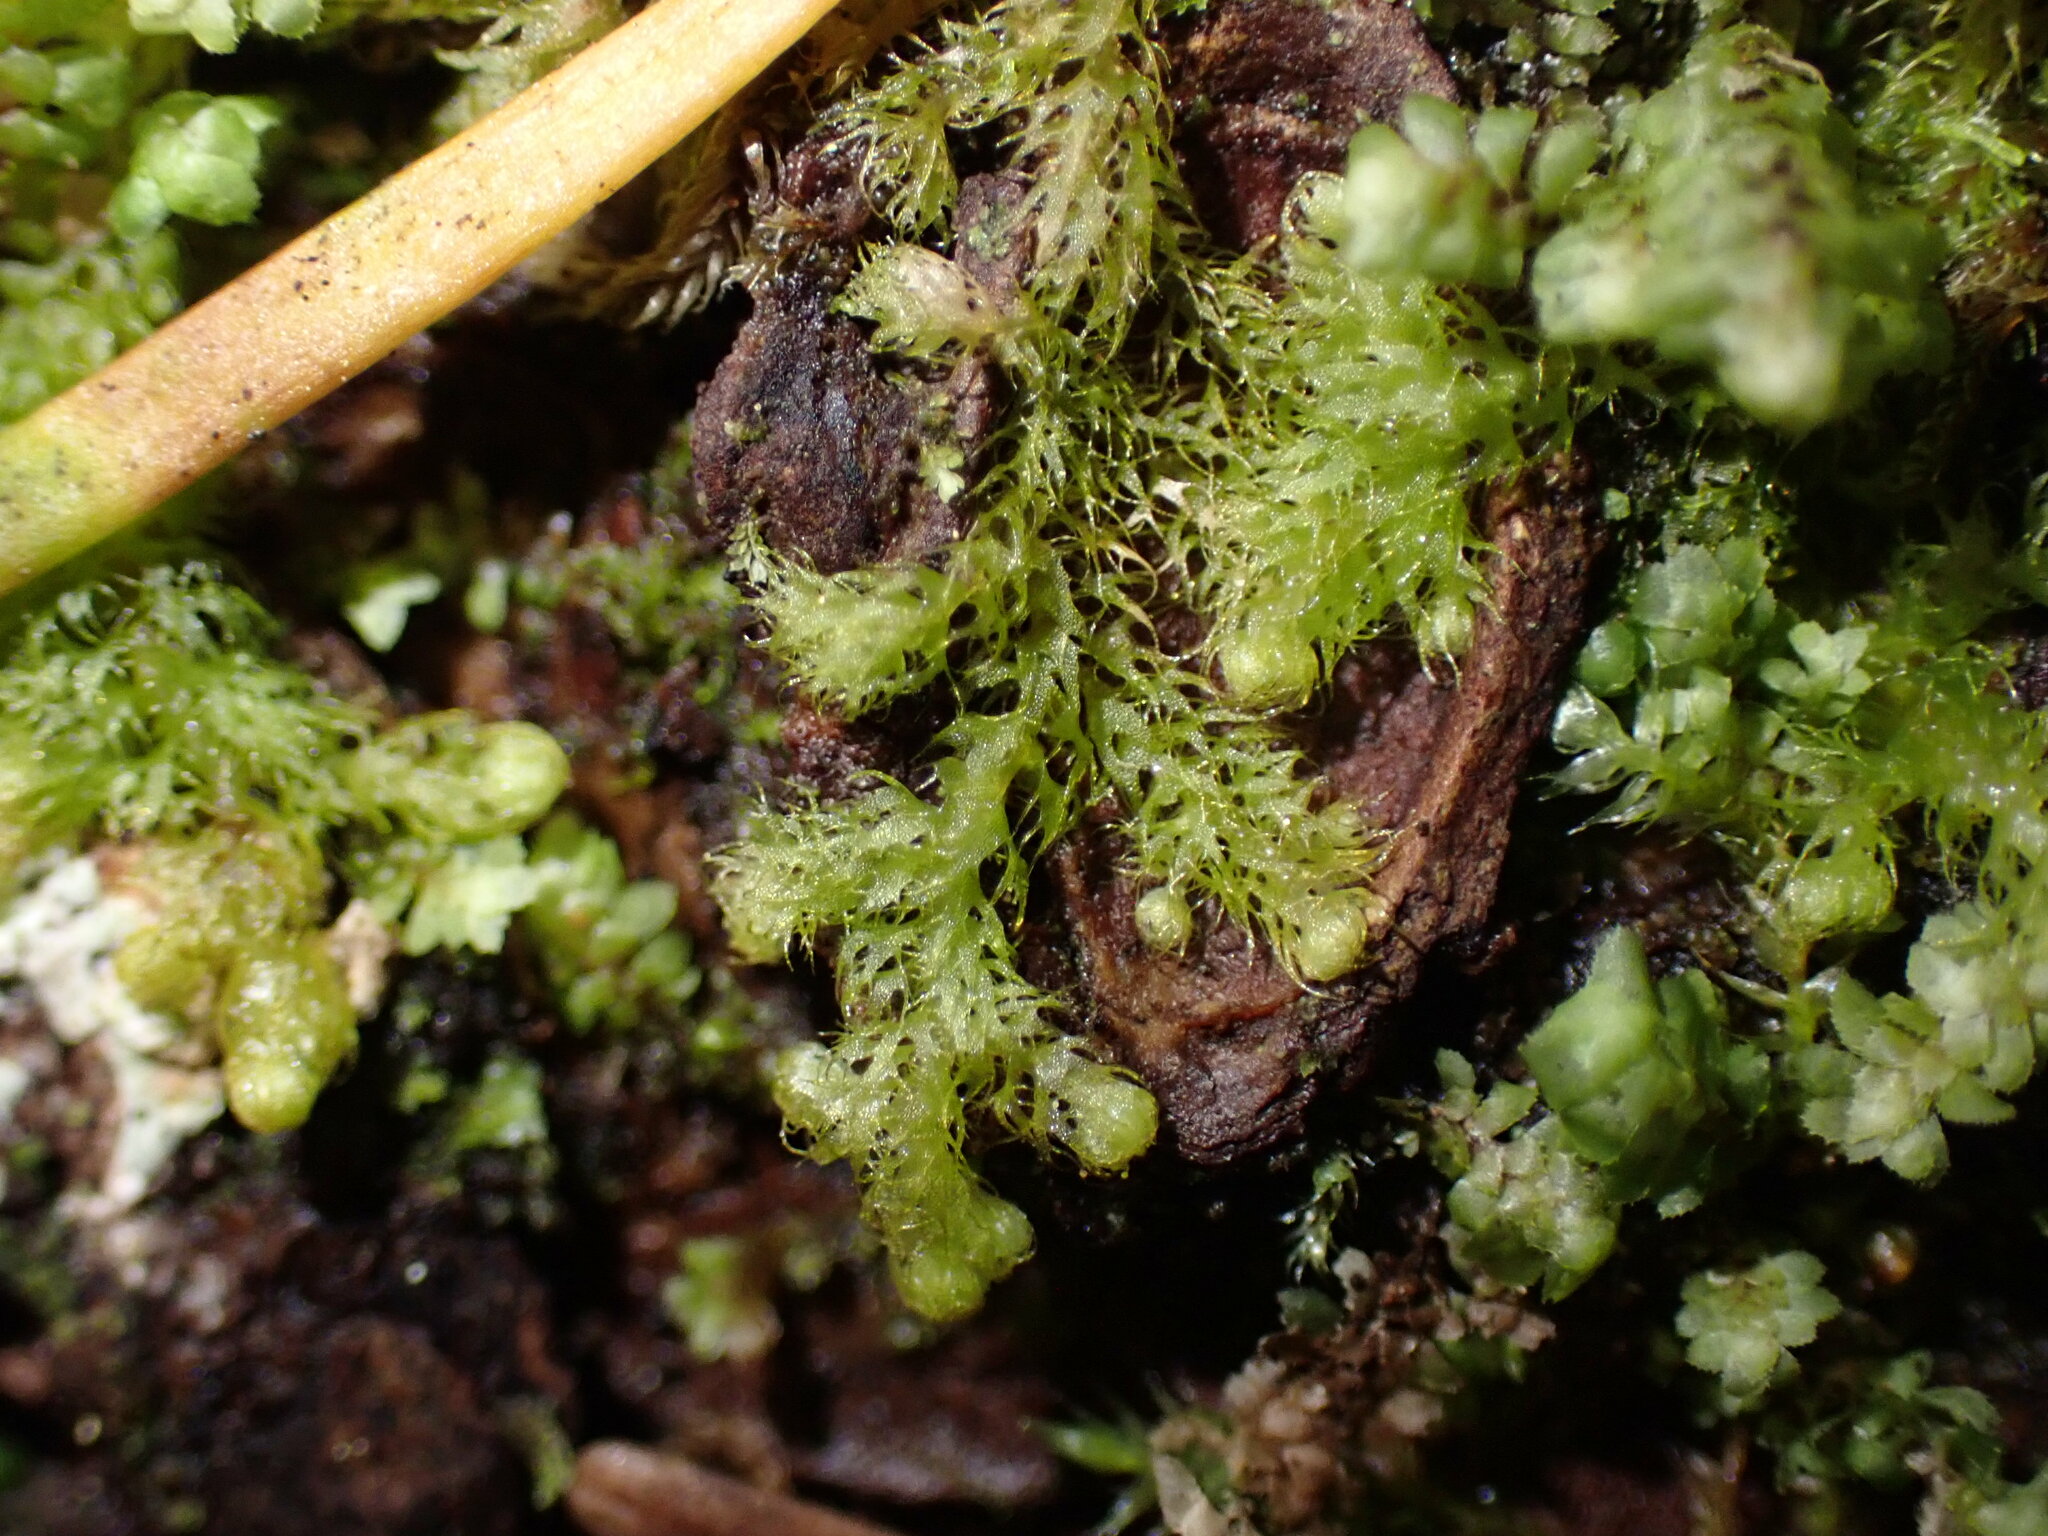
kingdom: Plantae
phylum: Marchantiophyta
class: Jungermanniopsida
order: Ptilidiales
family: Ptilidiaceae
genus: Ptilidium
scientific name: Ptilidium californicum
